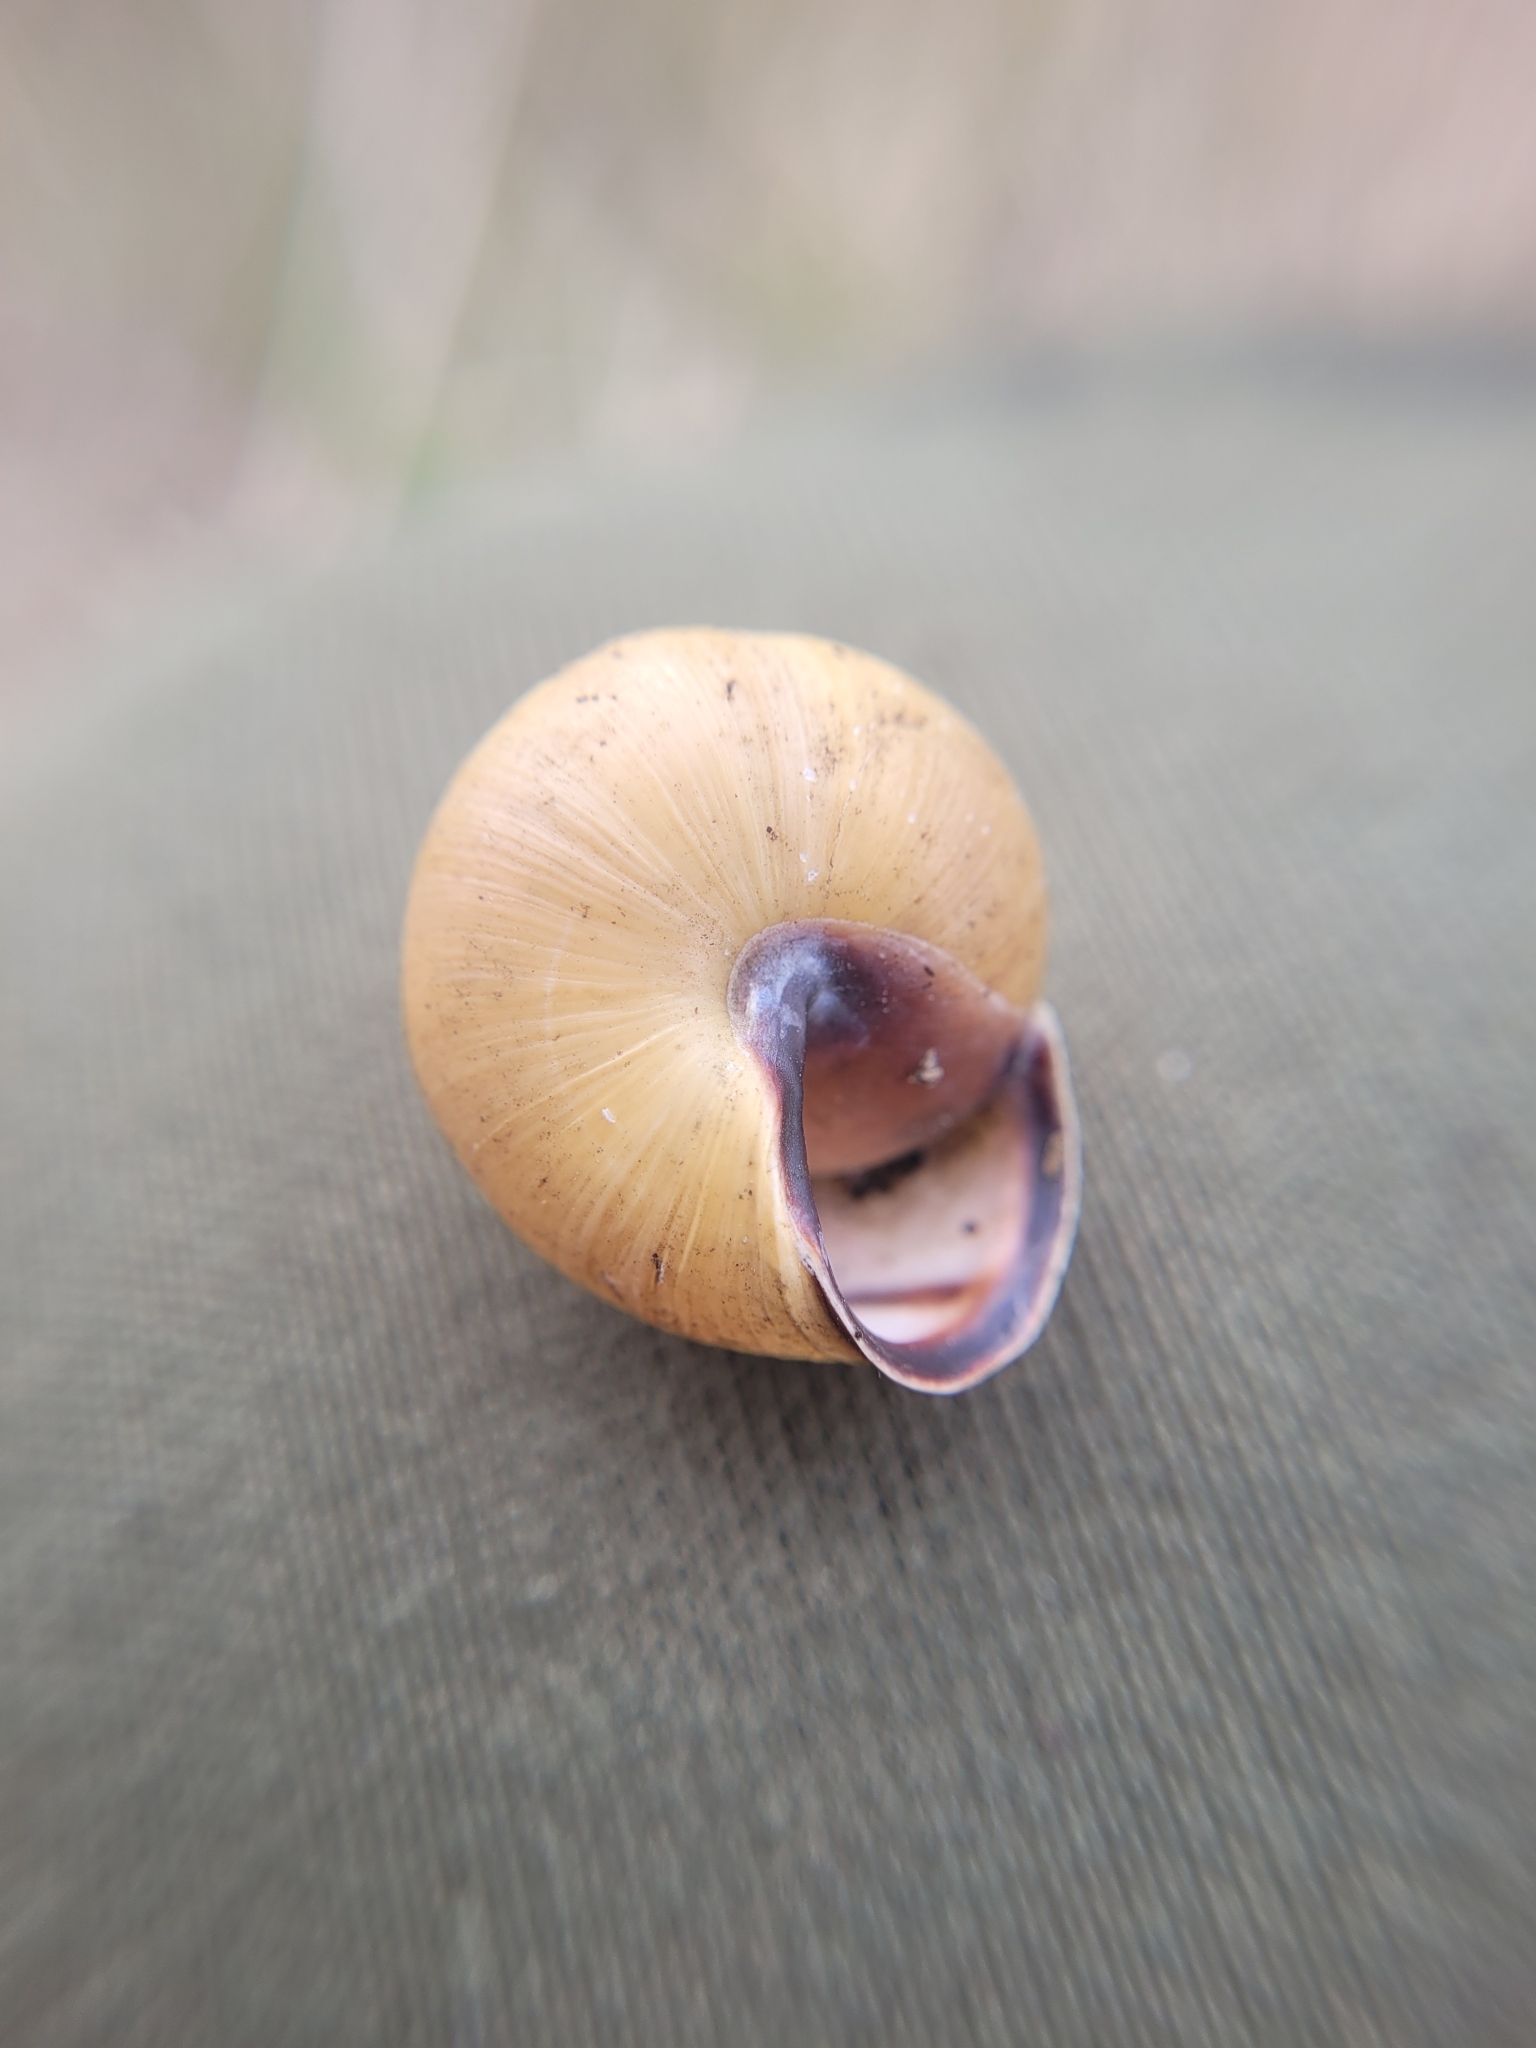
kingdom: Animalia
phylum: Mollusca
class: Gastropoda
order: Stylommatophora
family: Helicidae
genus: Cepaea
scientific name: Cepaea nemoralis
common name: Grovesnail
